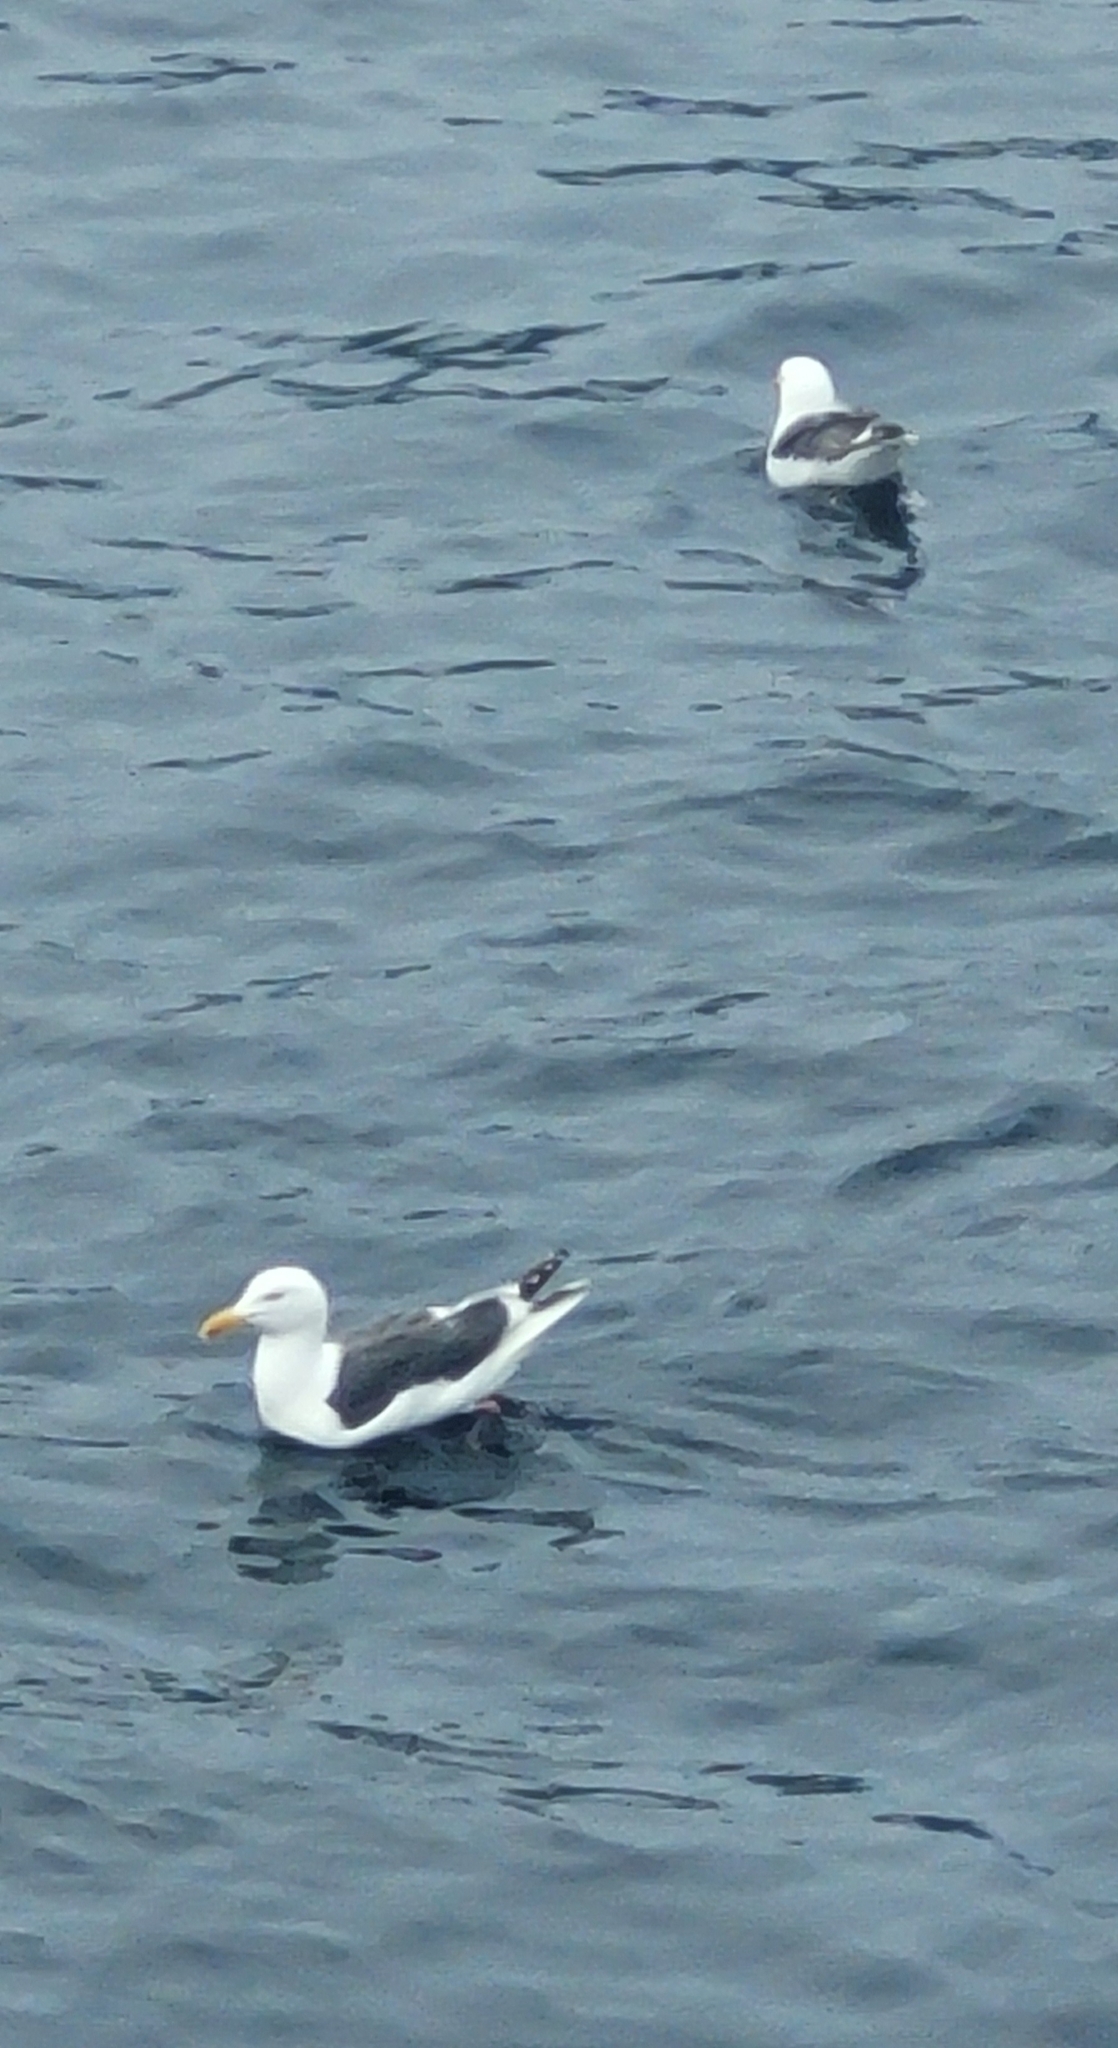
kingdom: Animalia
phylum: Chordata
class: Aves
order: Charadriiformes
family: Laridae
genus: Larus
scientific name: Larus schistisagus
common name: Slaty-backed gull
